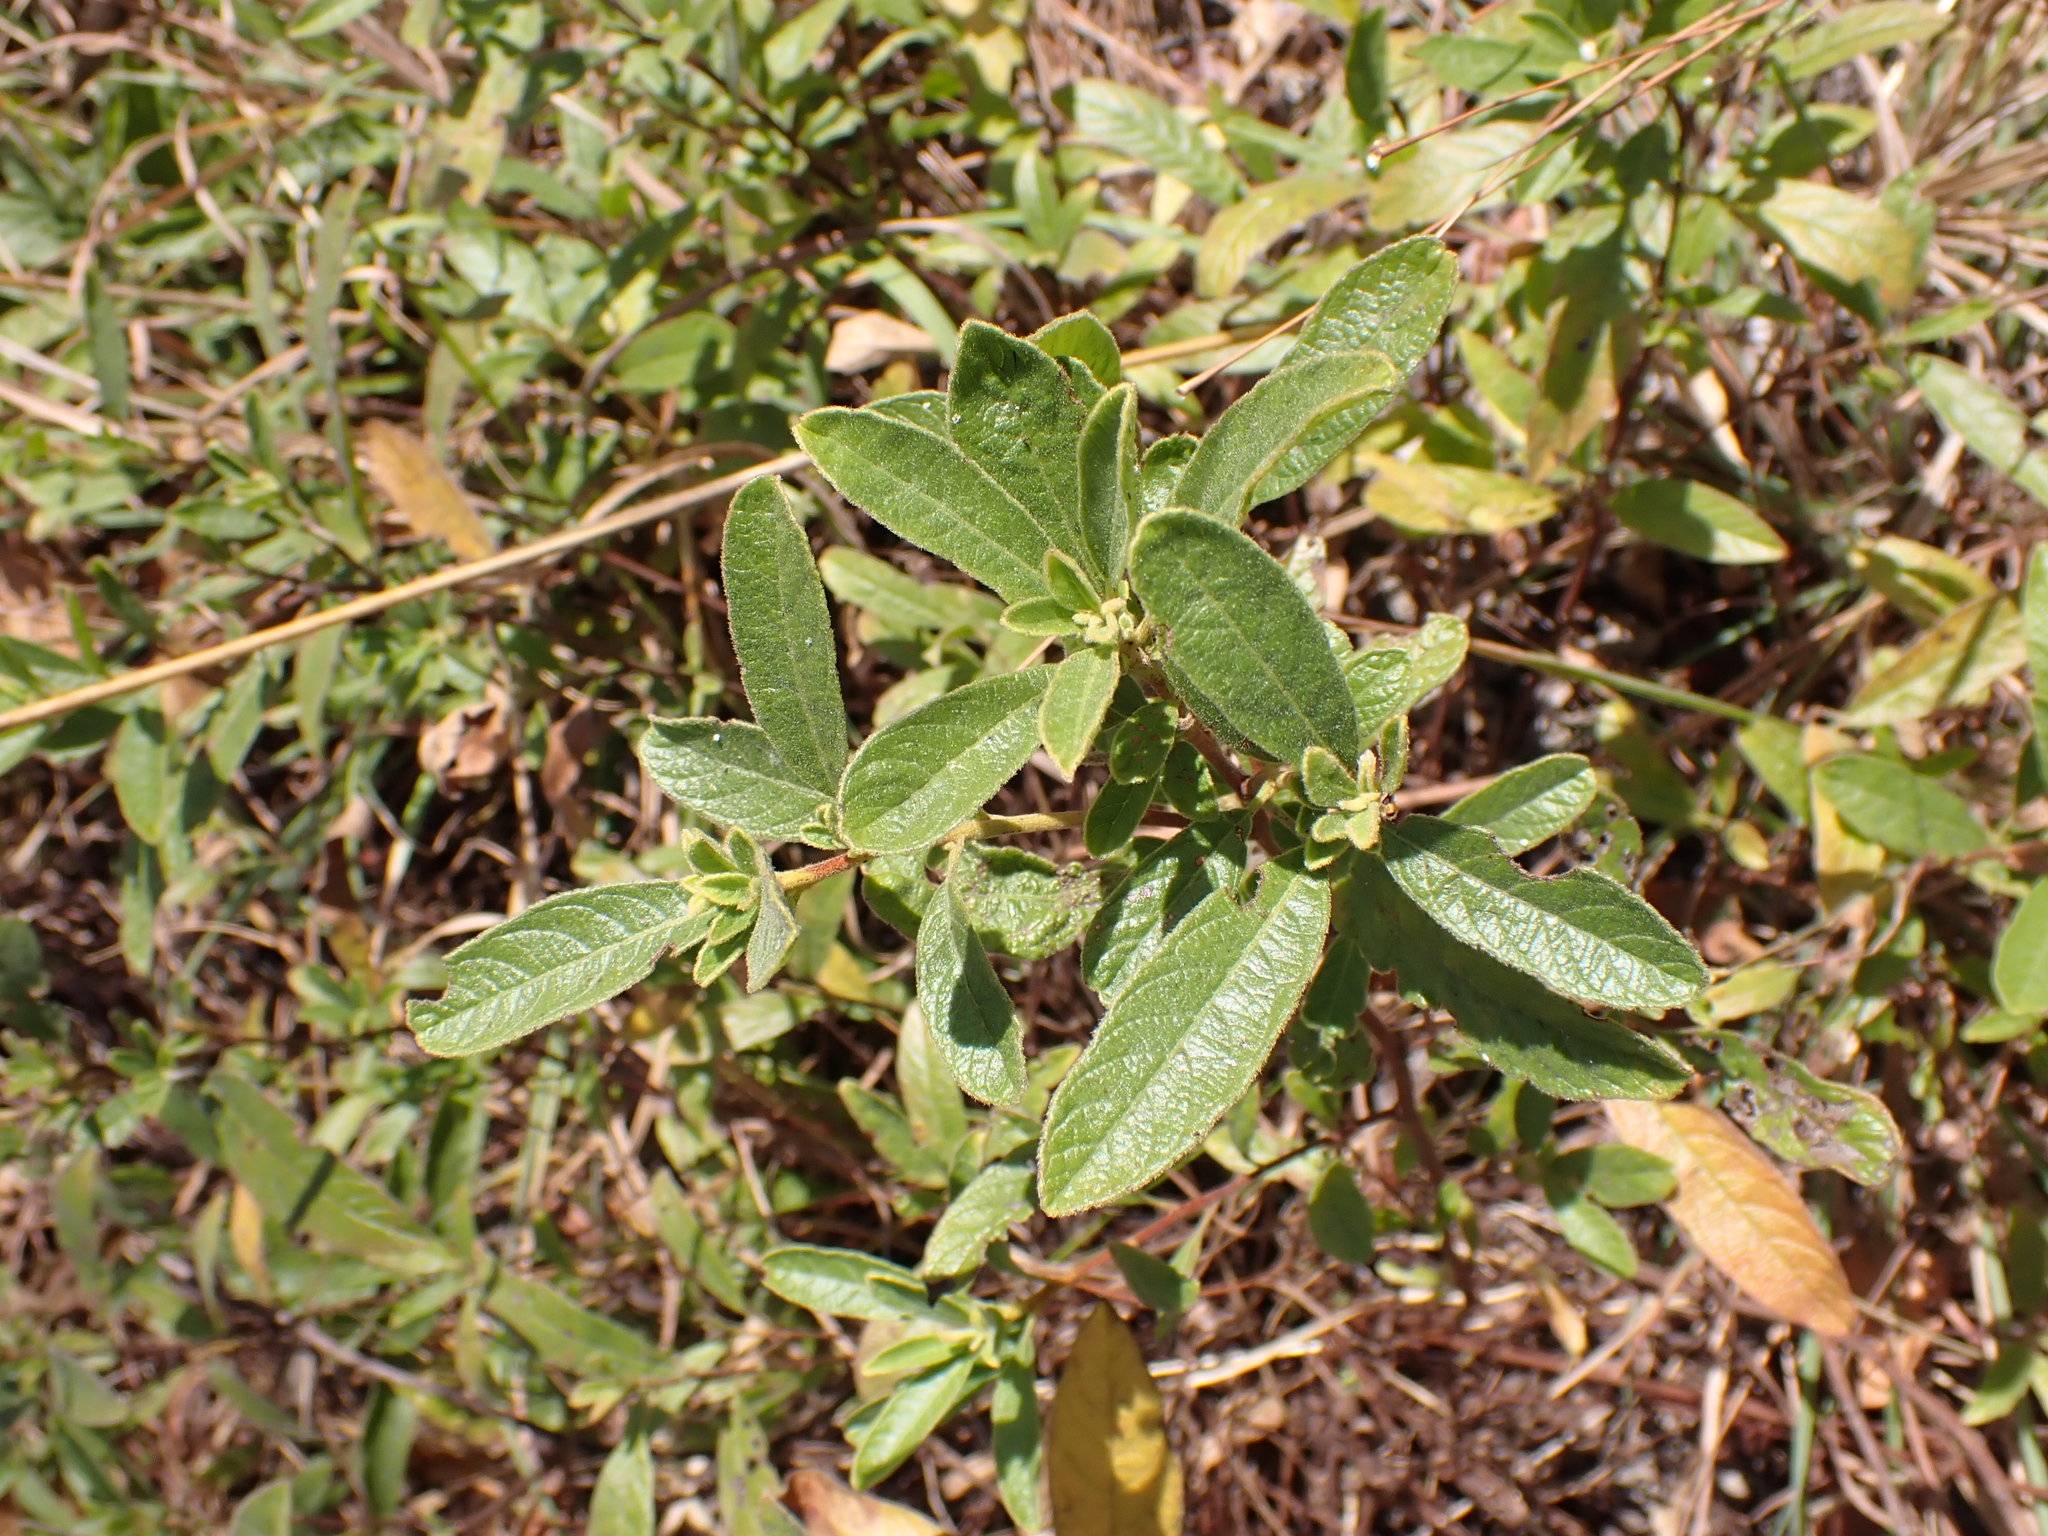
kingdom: Plantae
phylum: Tracheophyta
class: Magnoliopsida
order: Sapindales
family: Sapindaceae
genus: Dodonaea
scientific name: Dodonaea hispidula
